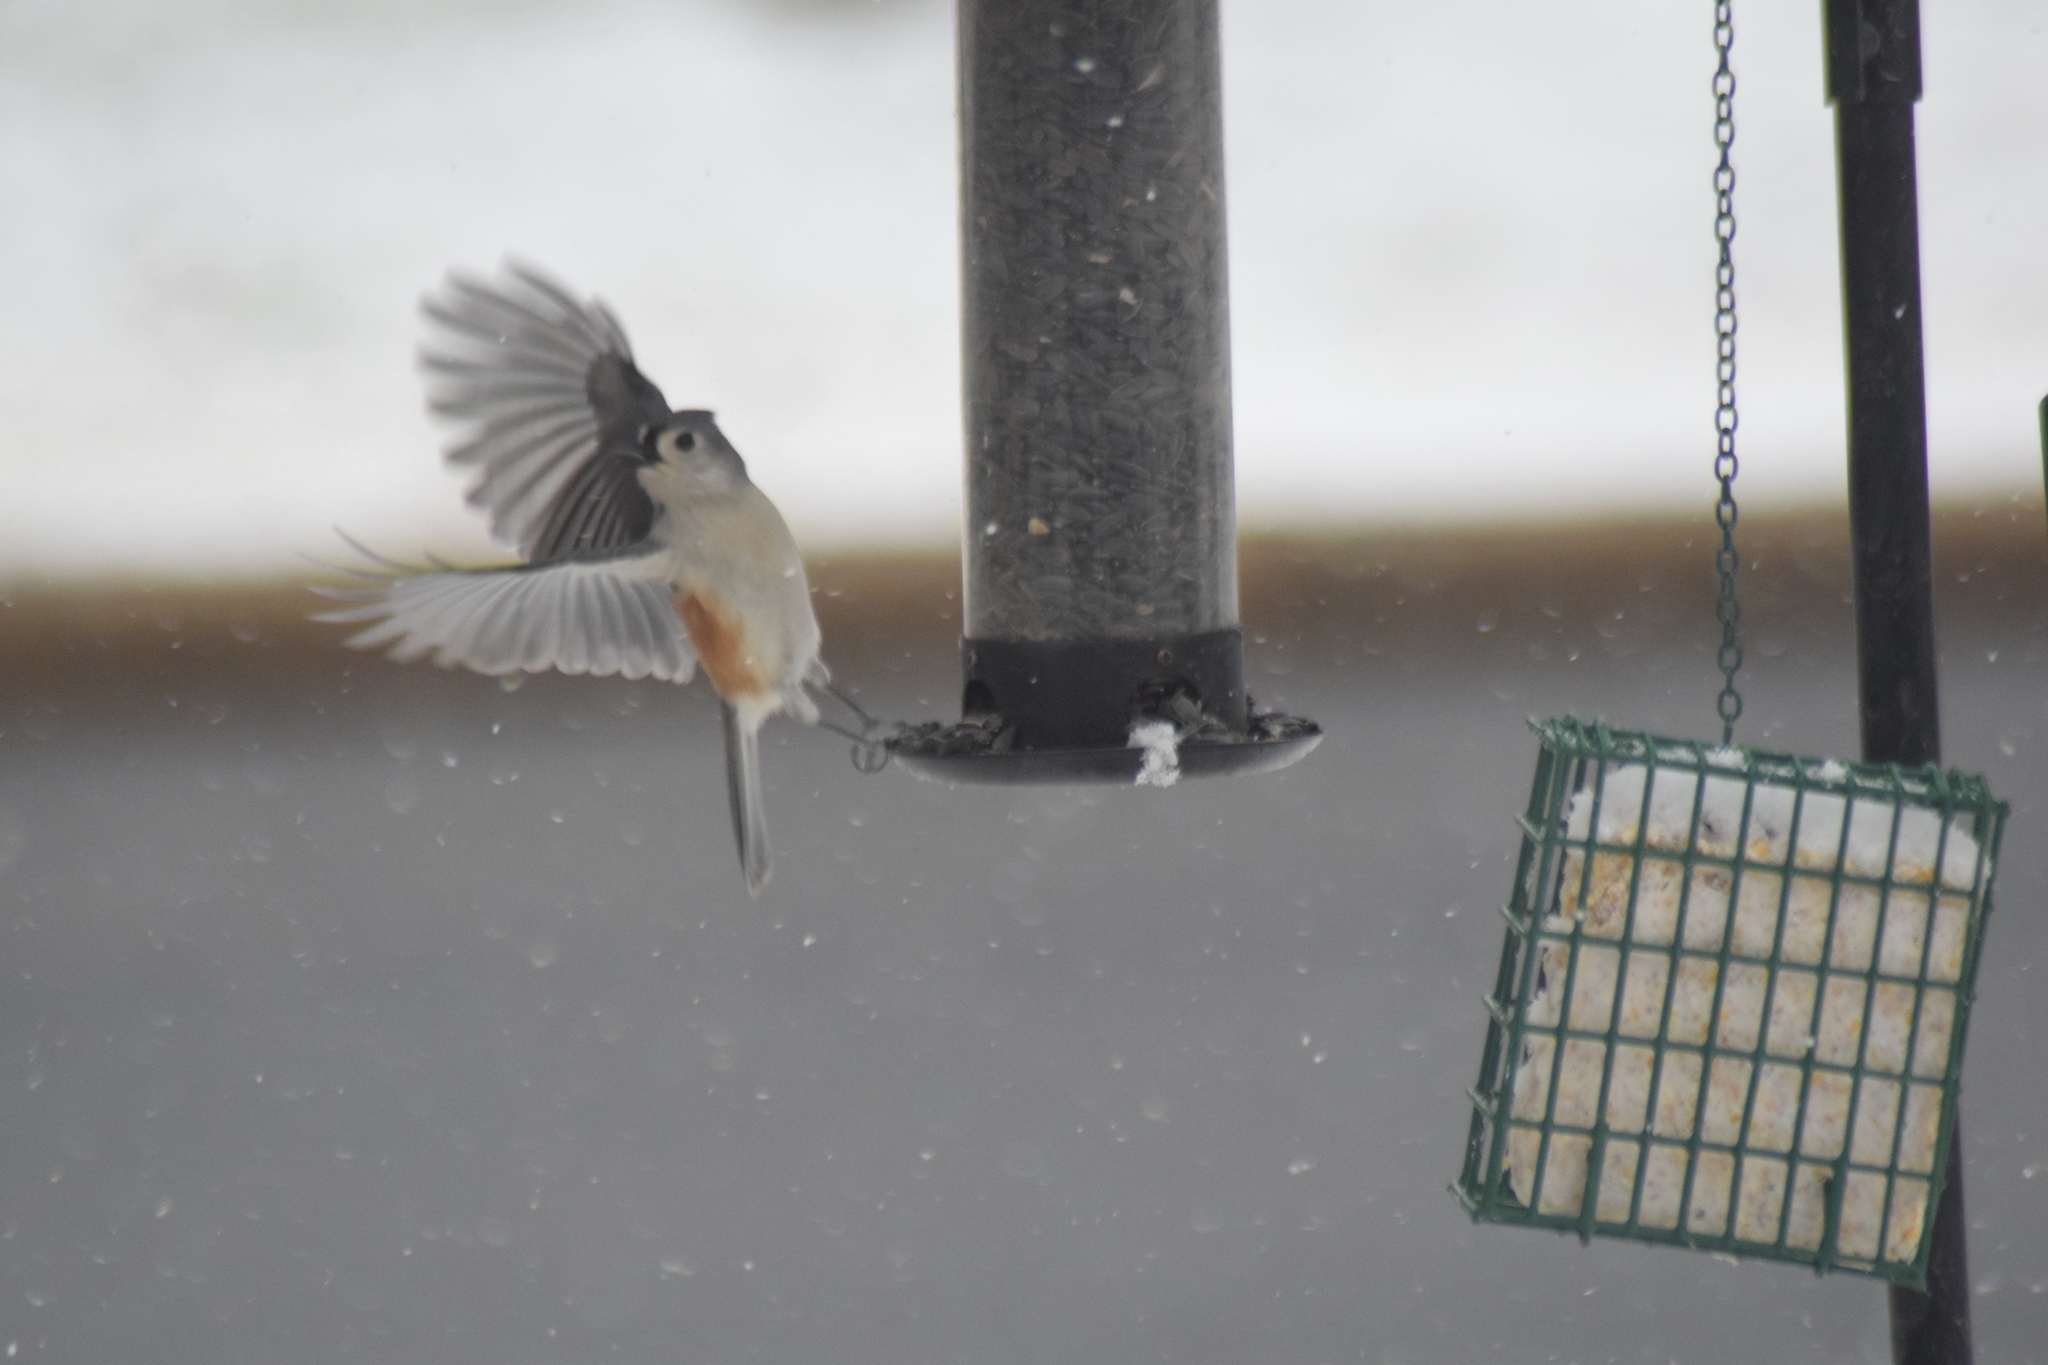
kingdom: Animalia
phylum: Chordata
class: Aves
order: Passeriformes
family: Paridae
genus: Baeolophus
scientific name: Baeolophus bicolor
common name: Tufted titmouse
